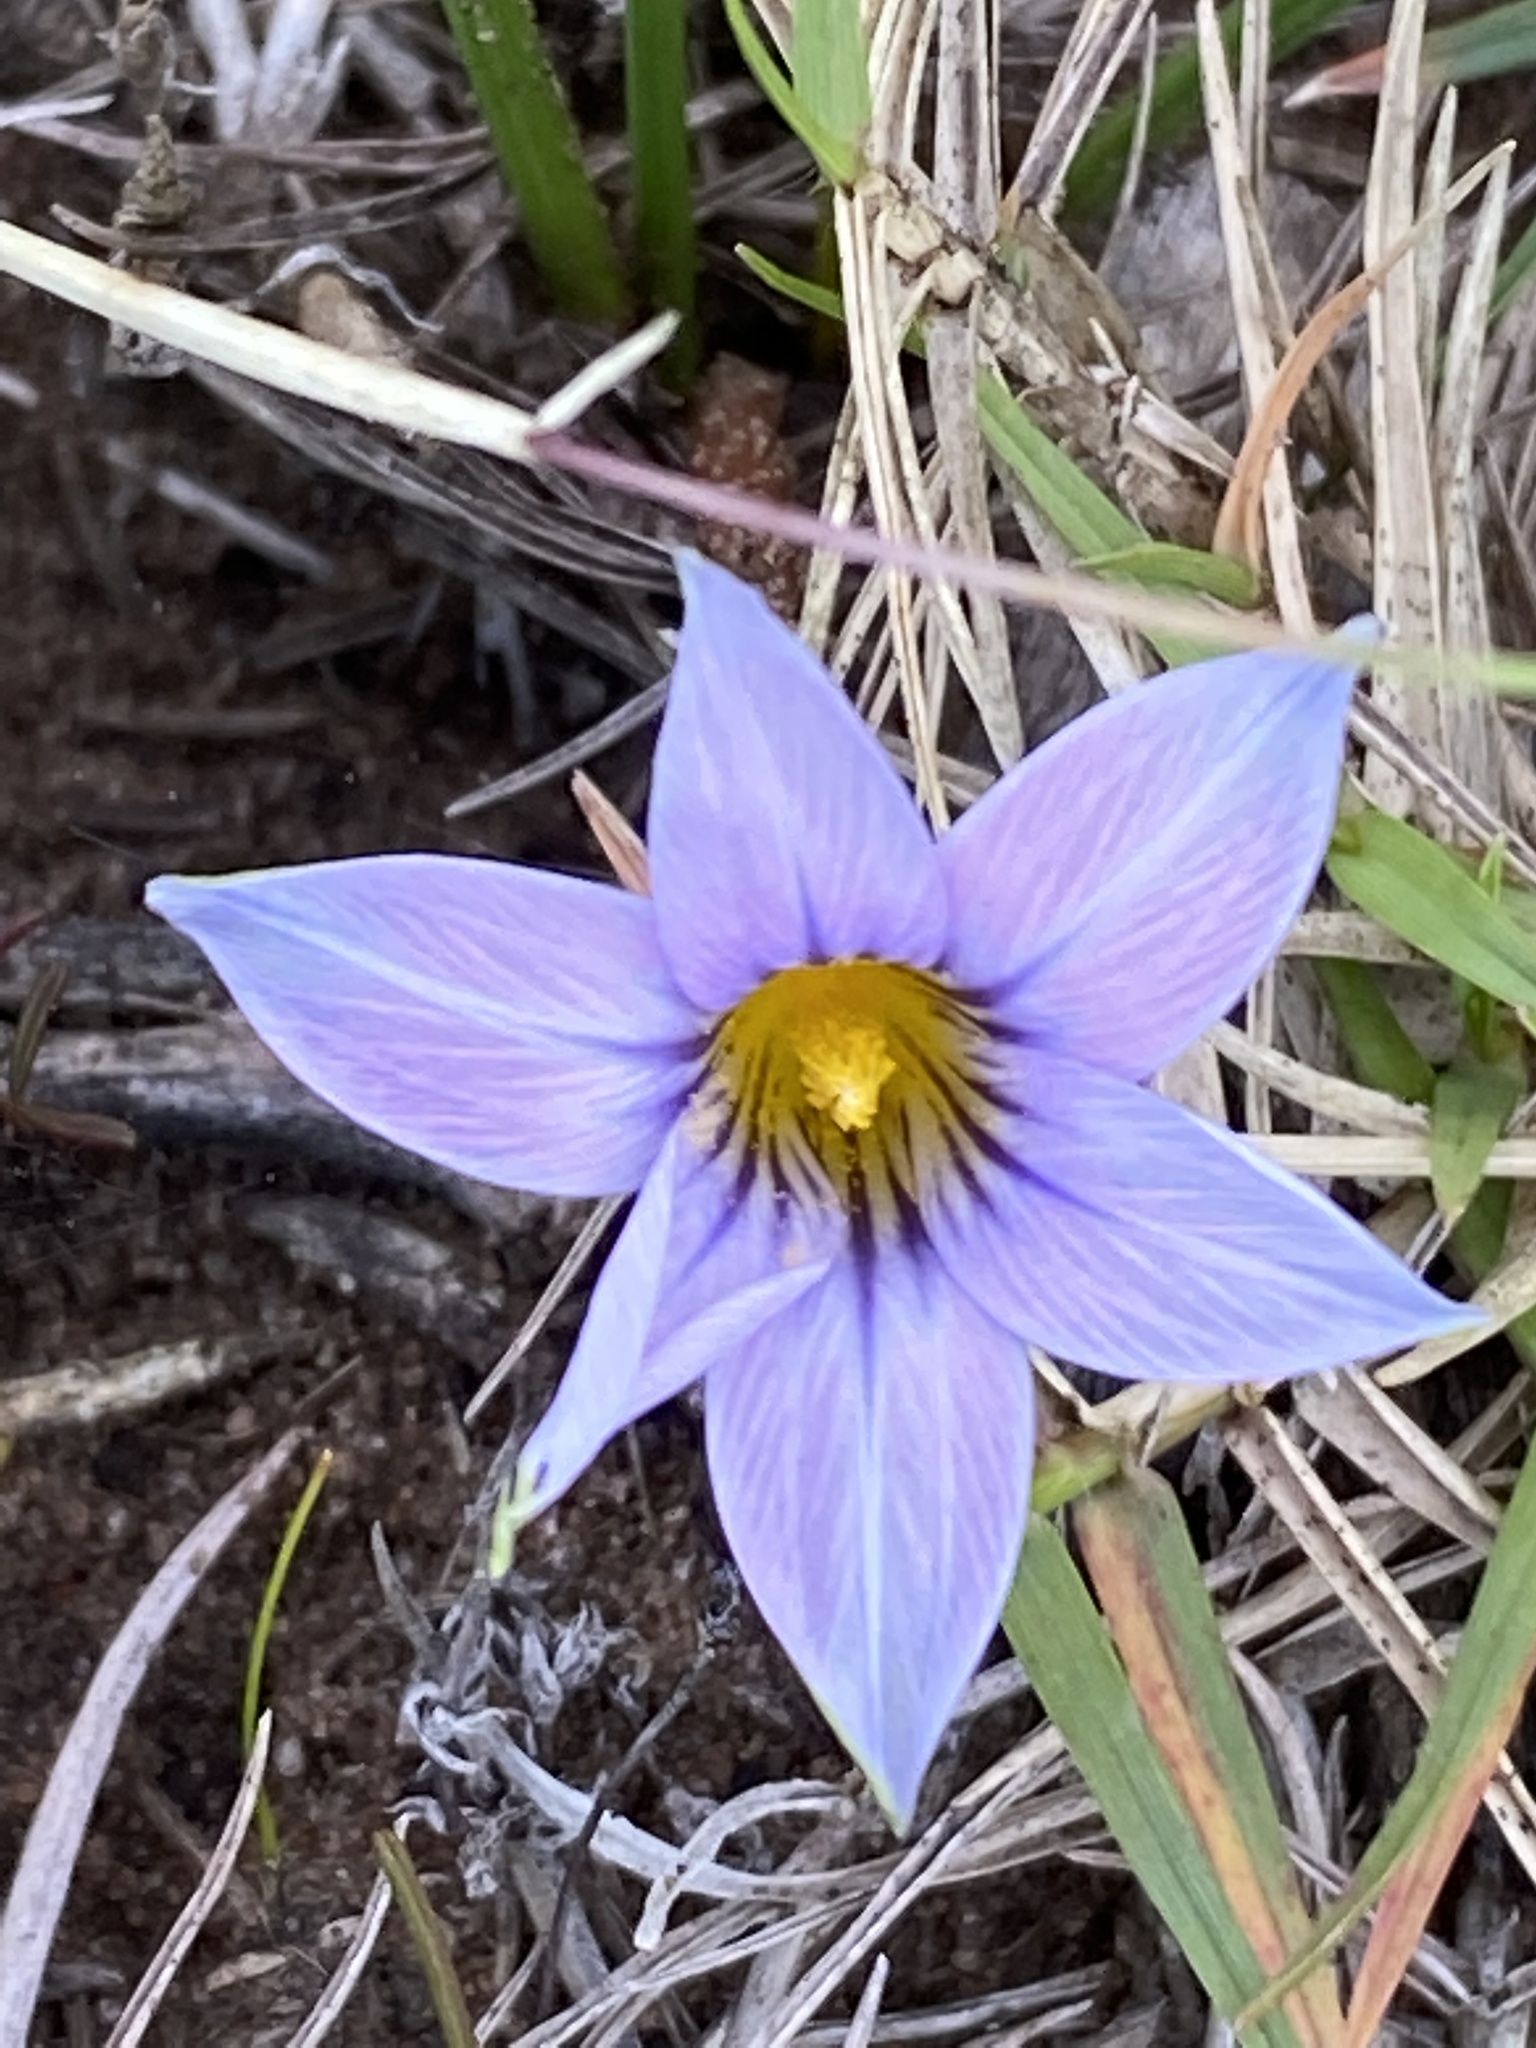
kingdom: Plantae
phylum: Tracheophyta
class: Liliopsida
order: Asparagales
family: Iridaceae
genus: Romulea
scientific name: Romulea rosea
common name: Oniongrass
